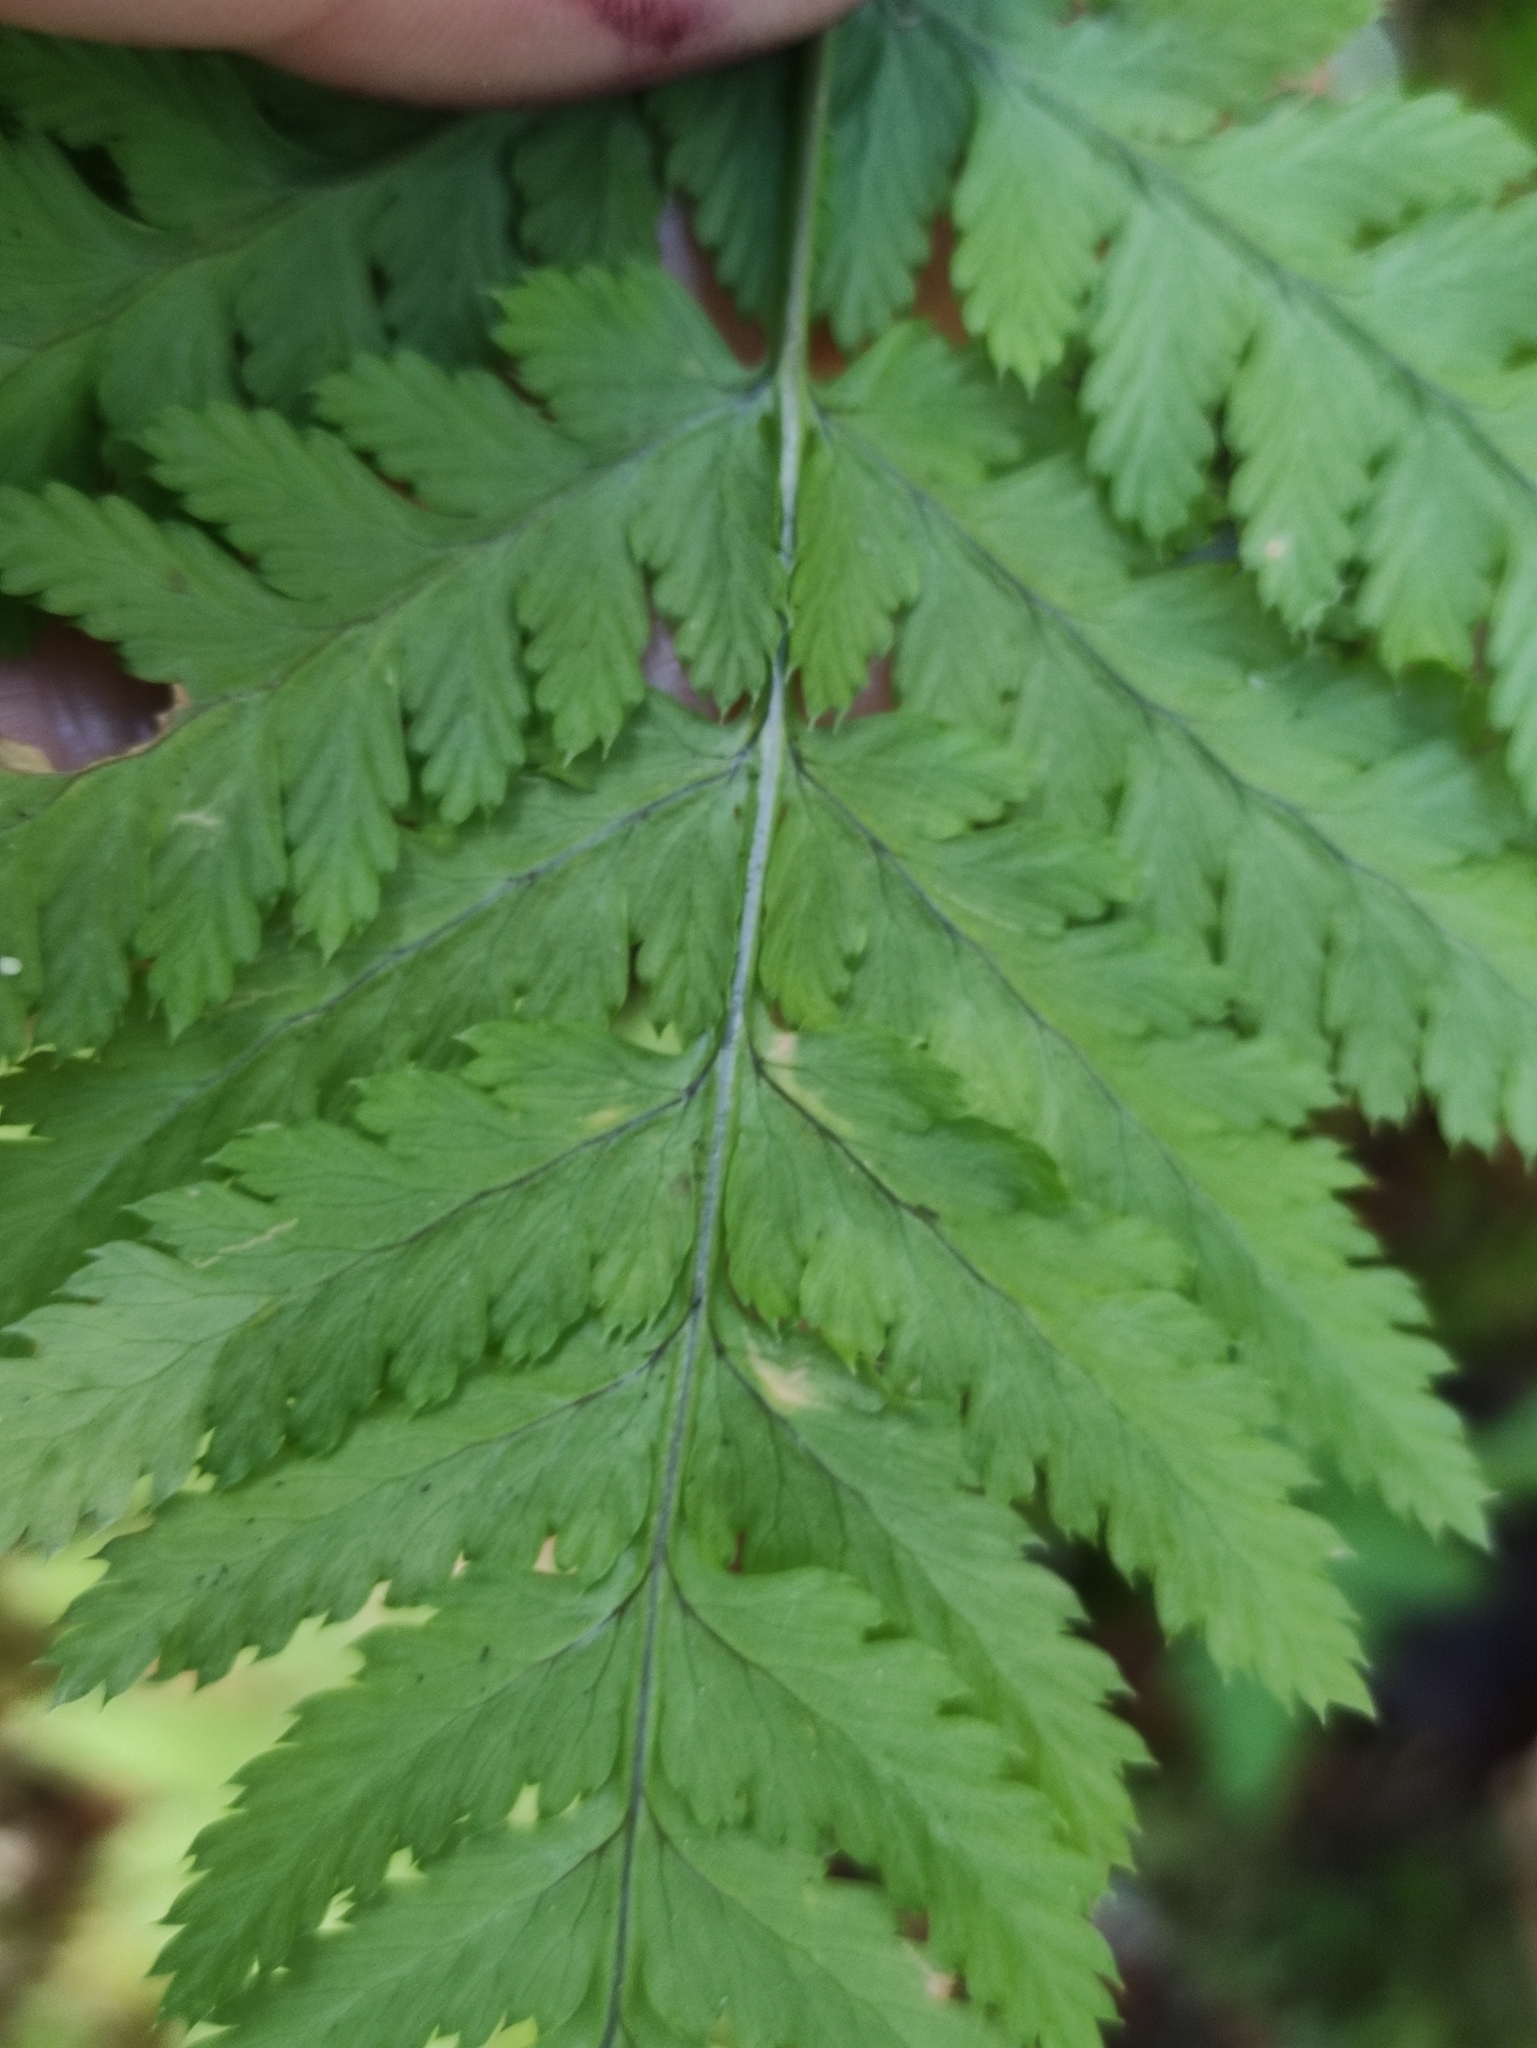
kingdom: Plantae
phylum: Tracheophyta
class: Polypodiopsida
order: Polypodiales
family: Dryopteridaceae
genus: Dryopteris
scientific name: Dryopteris carthusiana
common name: Narrow buckler-fern
